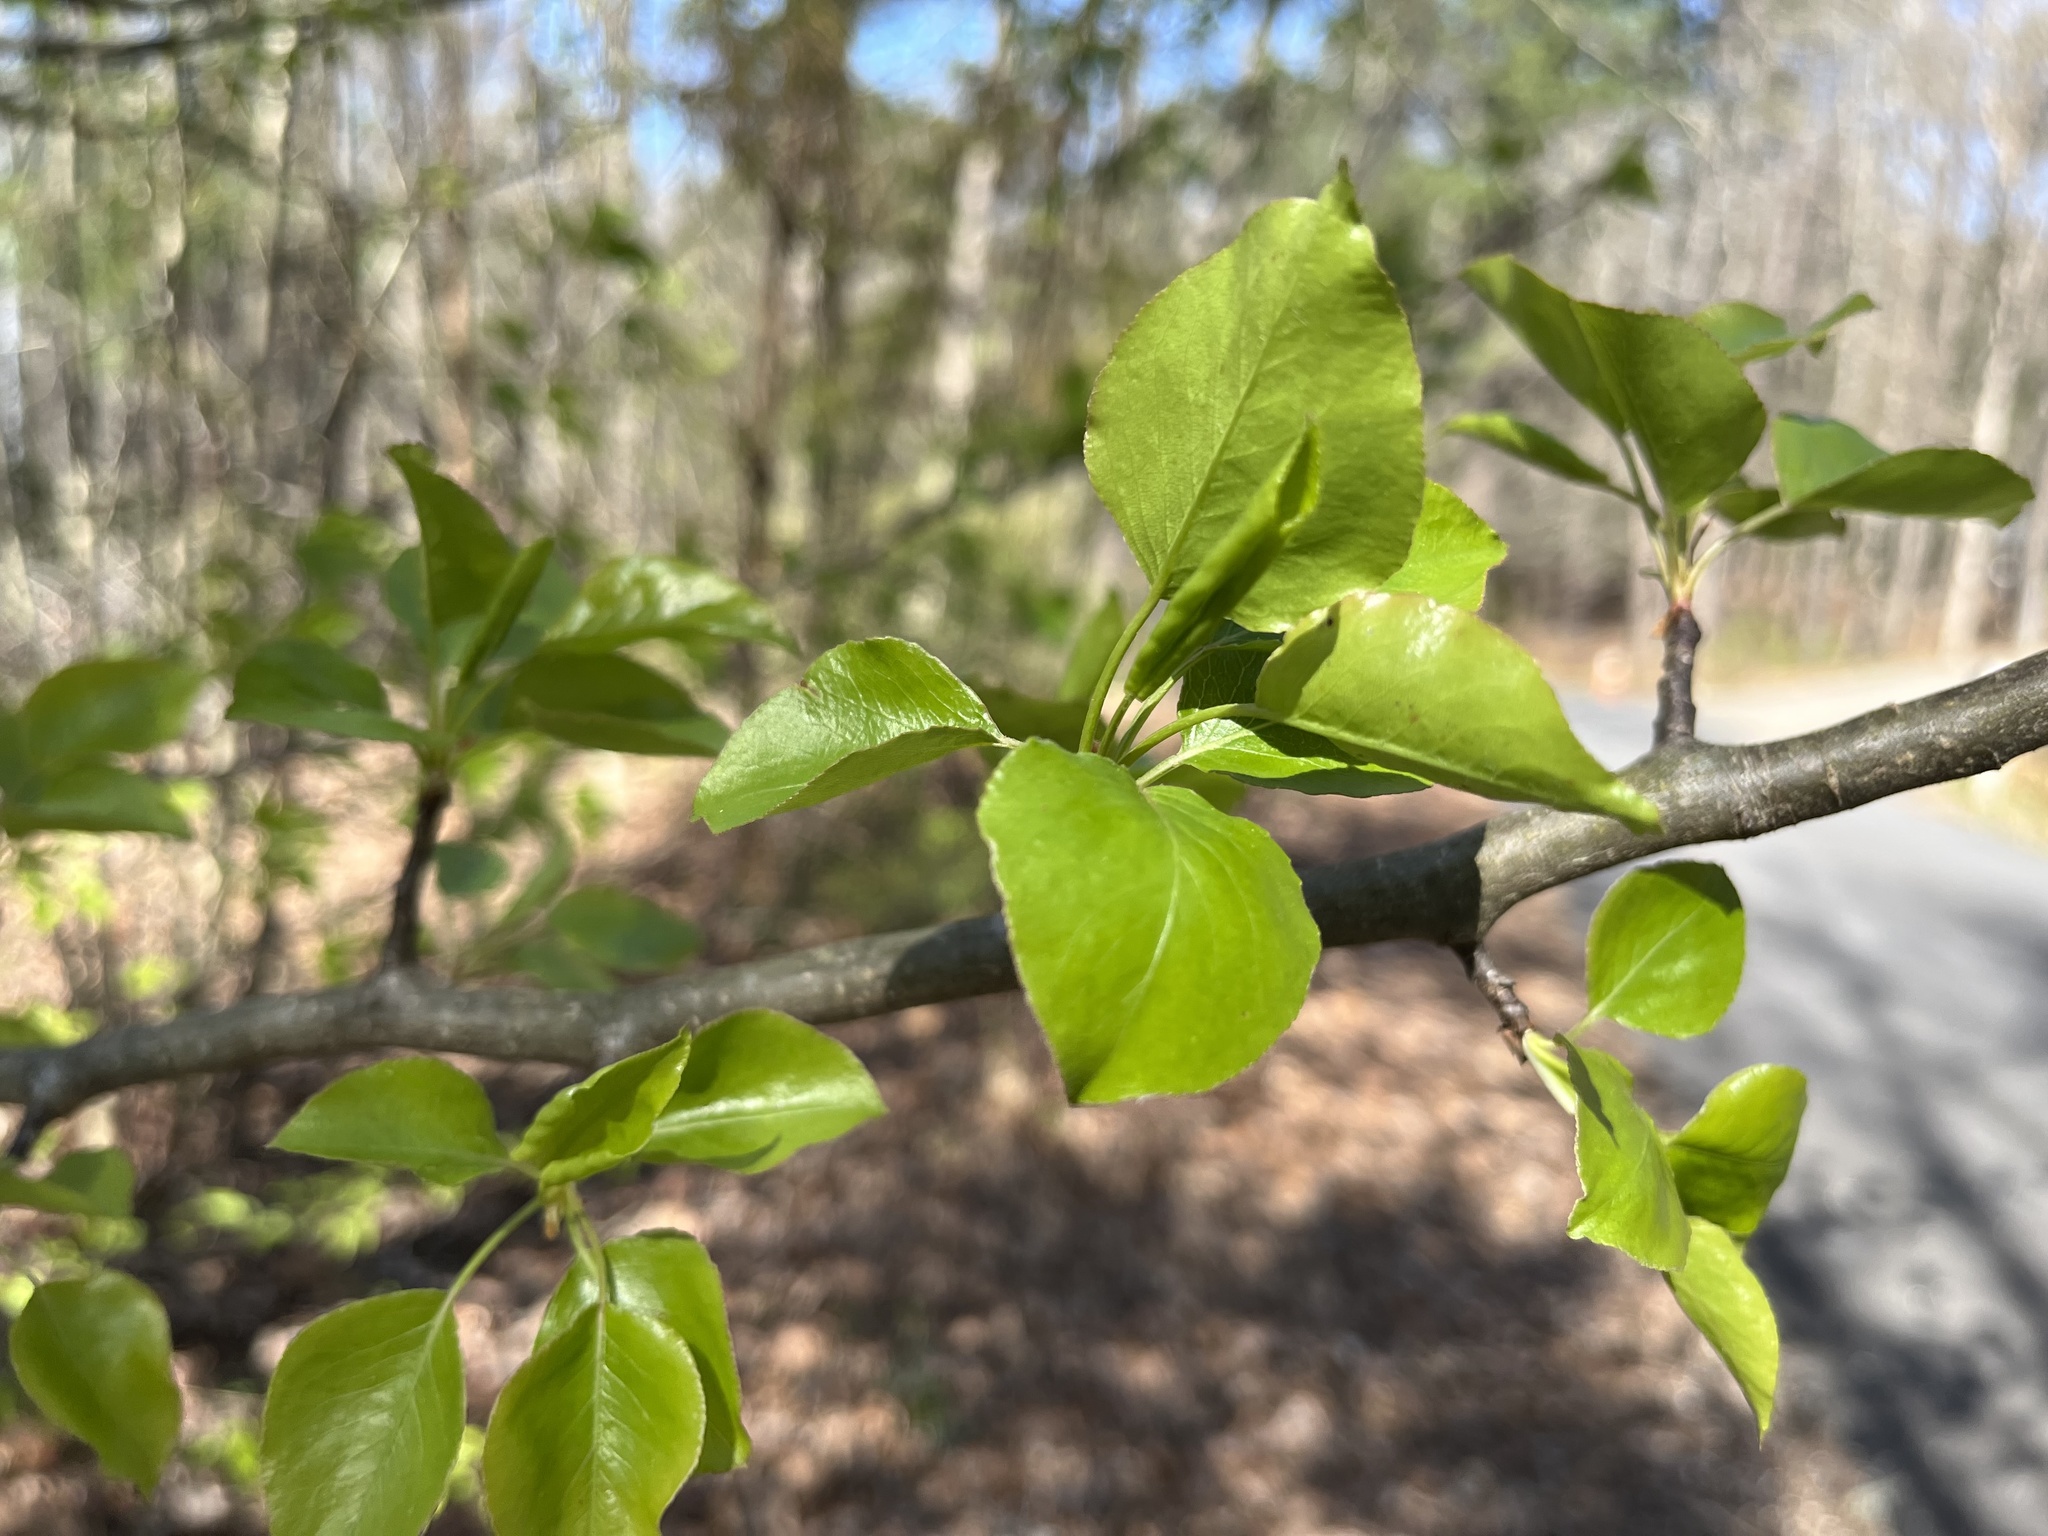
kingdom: Plantae
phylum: Tracheophyta
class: Magnoliopsida
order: Rosales
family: Rosaceae
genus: Pyrus
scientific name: Pyrus calleryana
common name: Callery pear
